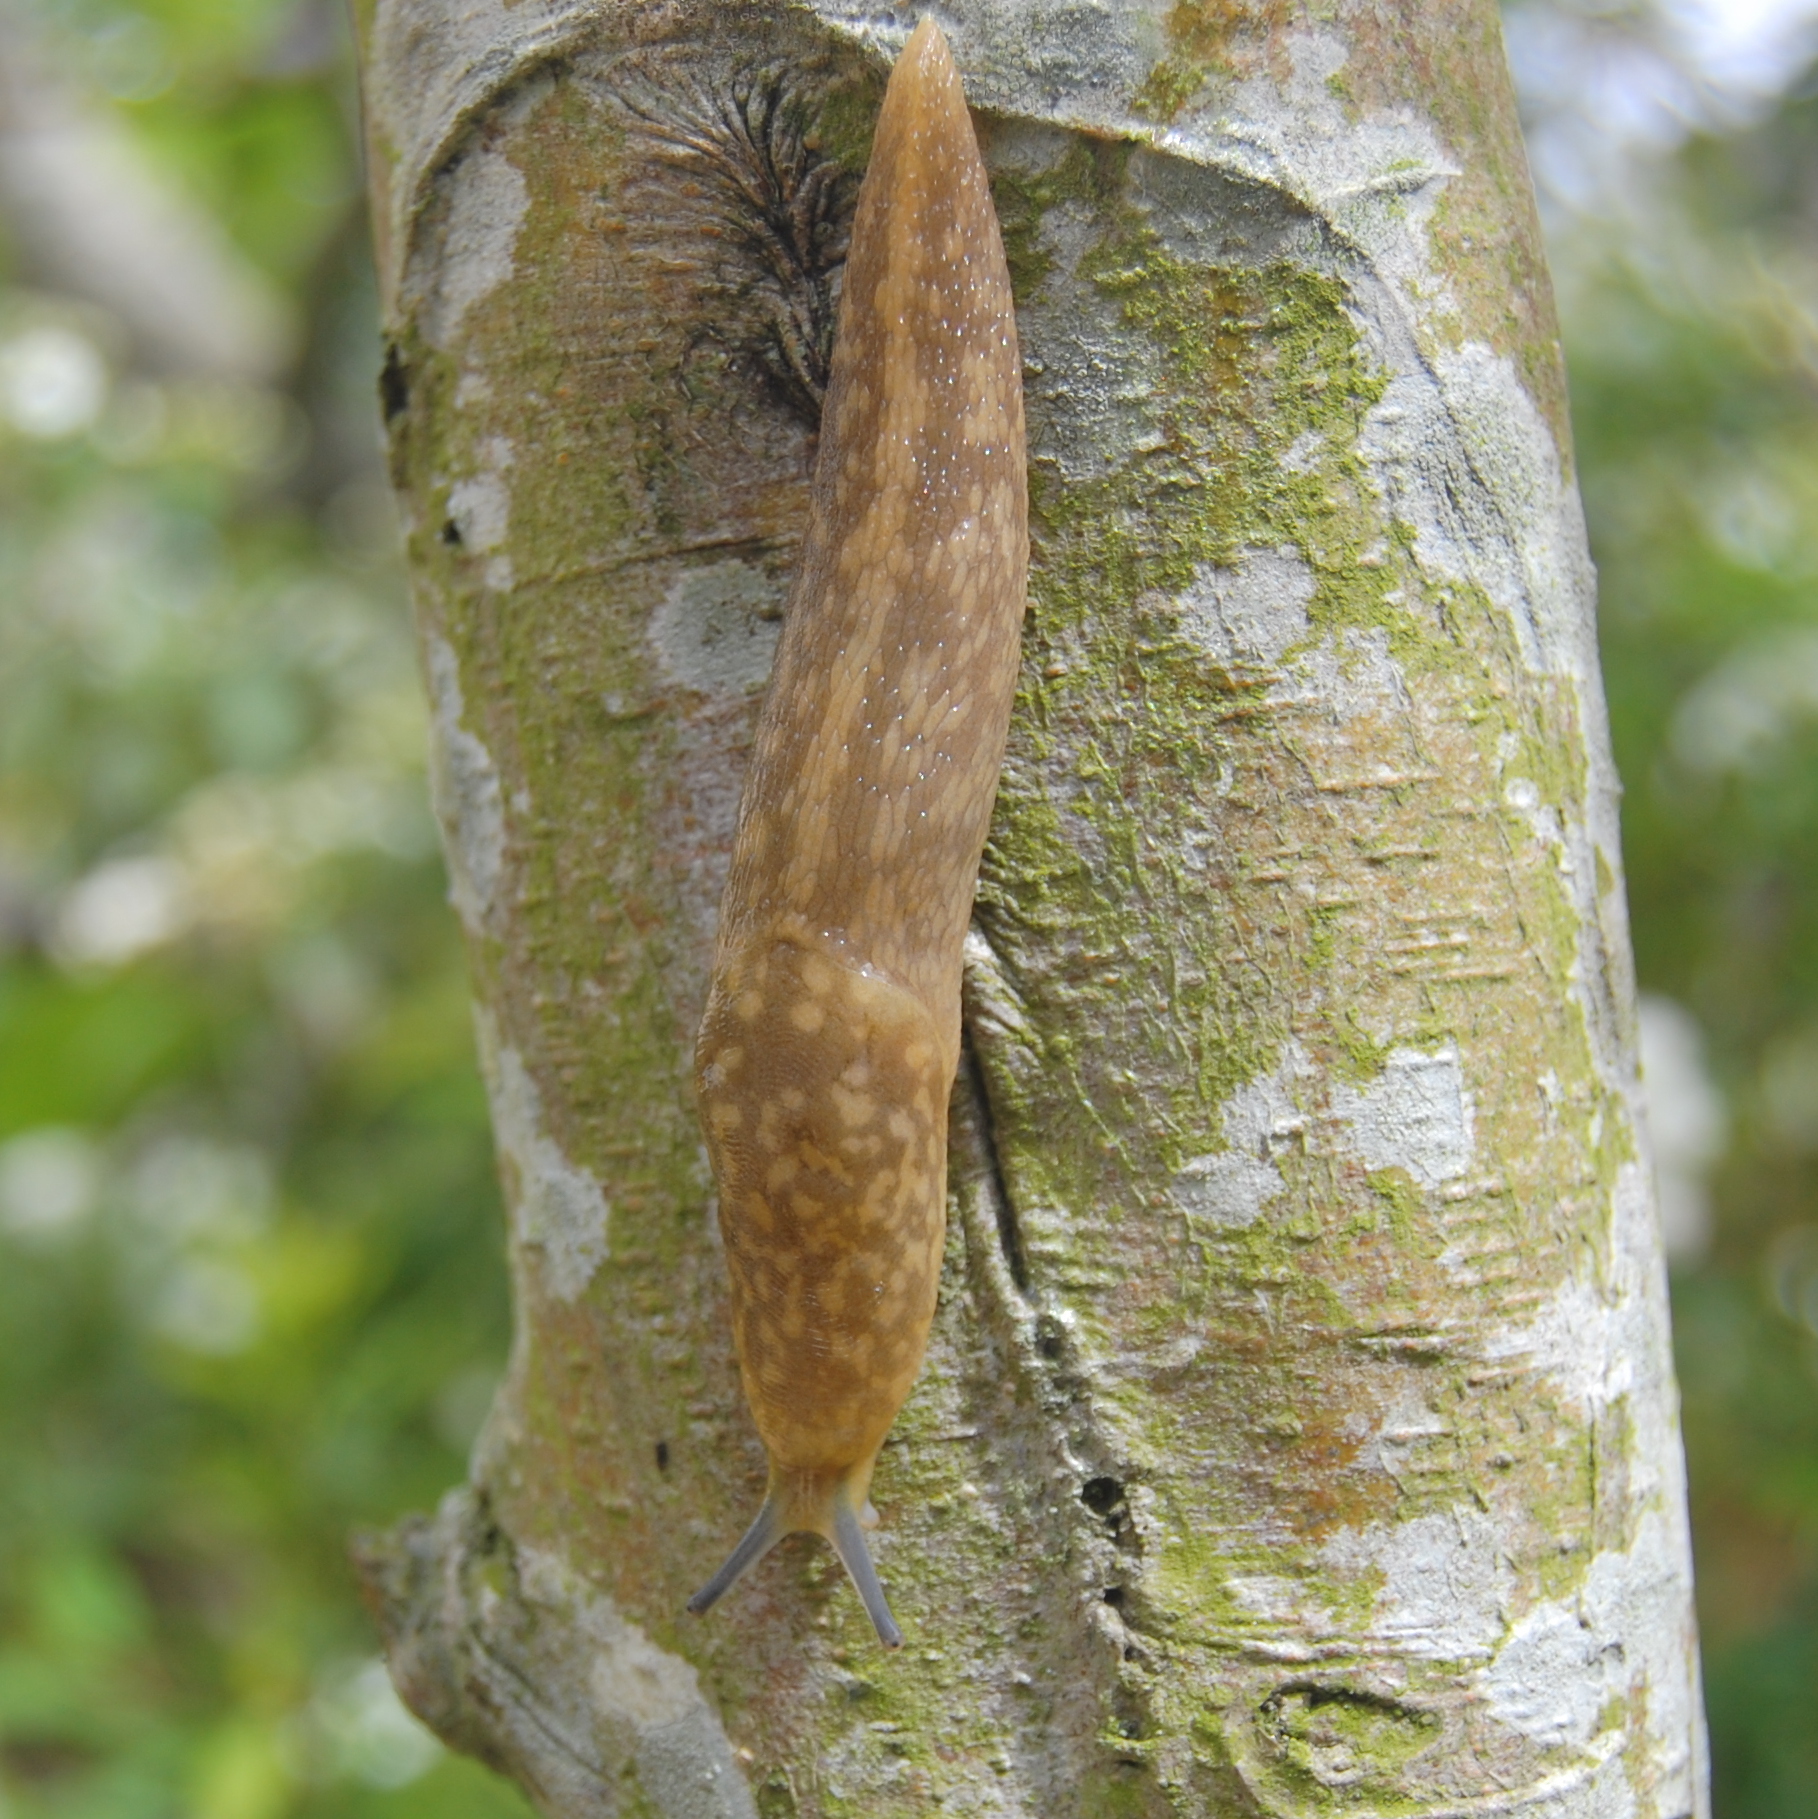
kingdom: Animalia
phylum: Mollusca
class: Gastropoda
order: Stylommatophora
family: Limacidae
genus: Limacus
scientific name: Limacus flavus
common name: Yellow gardenslug
